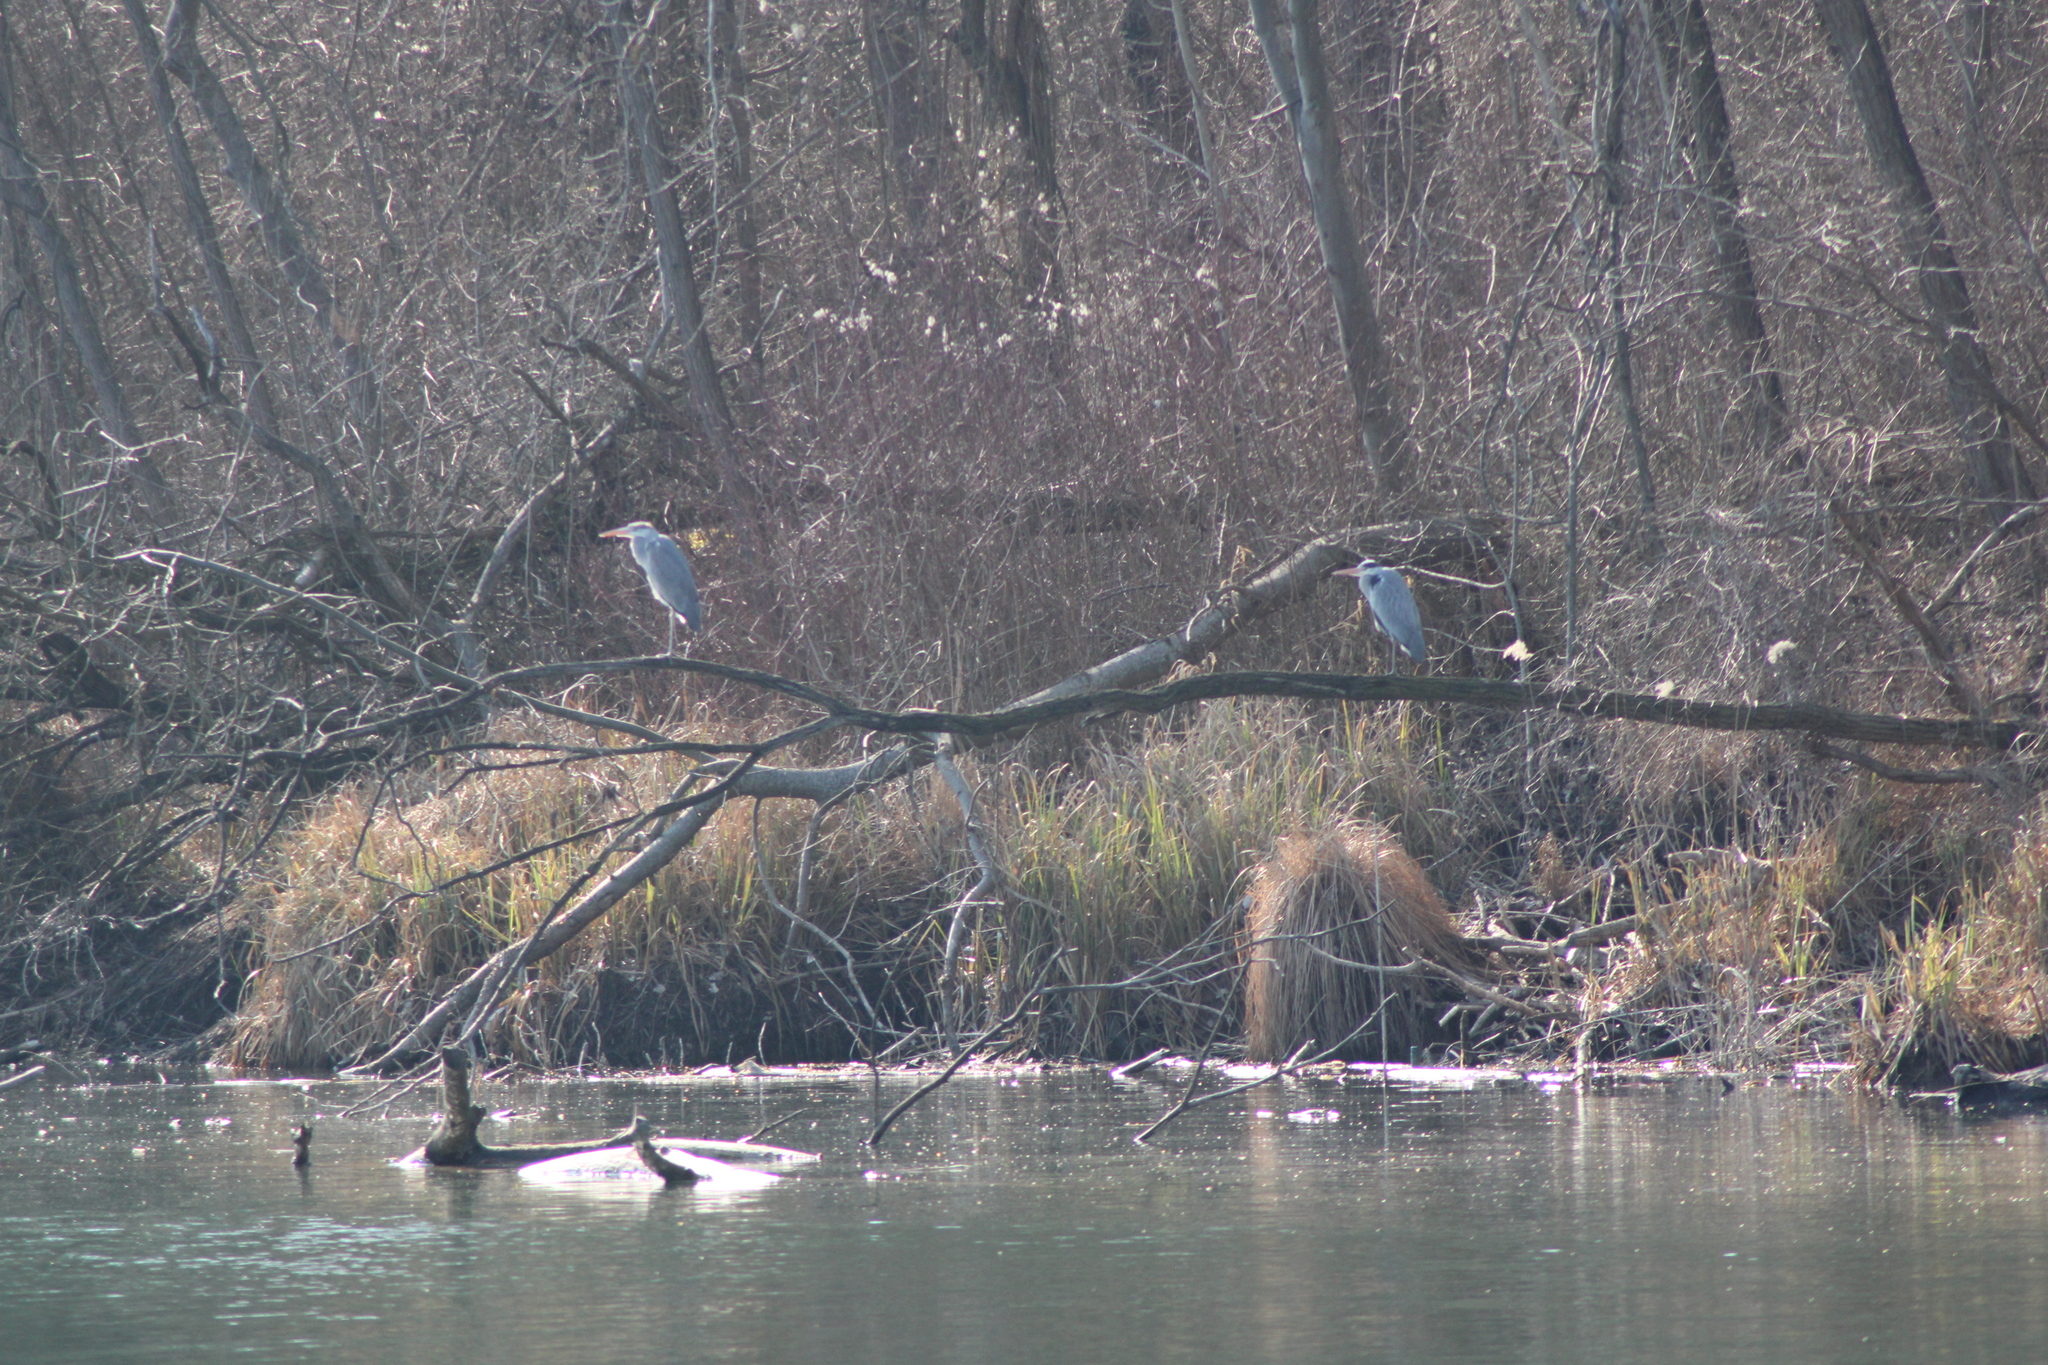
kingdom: Animalia
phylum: Chordata
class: Aves
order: Pelecaniformes
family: Ardeidae
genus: Ardea
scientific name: Ardea cinerea
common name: Grey heron
